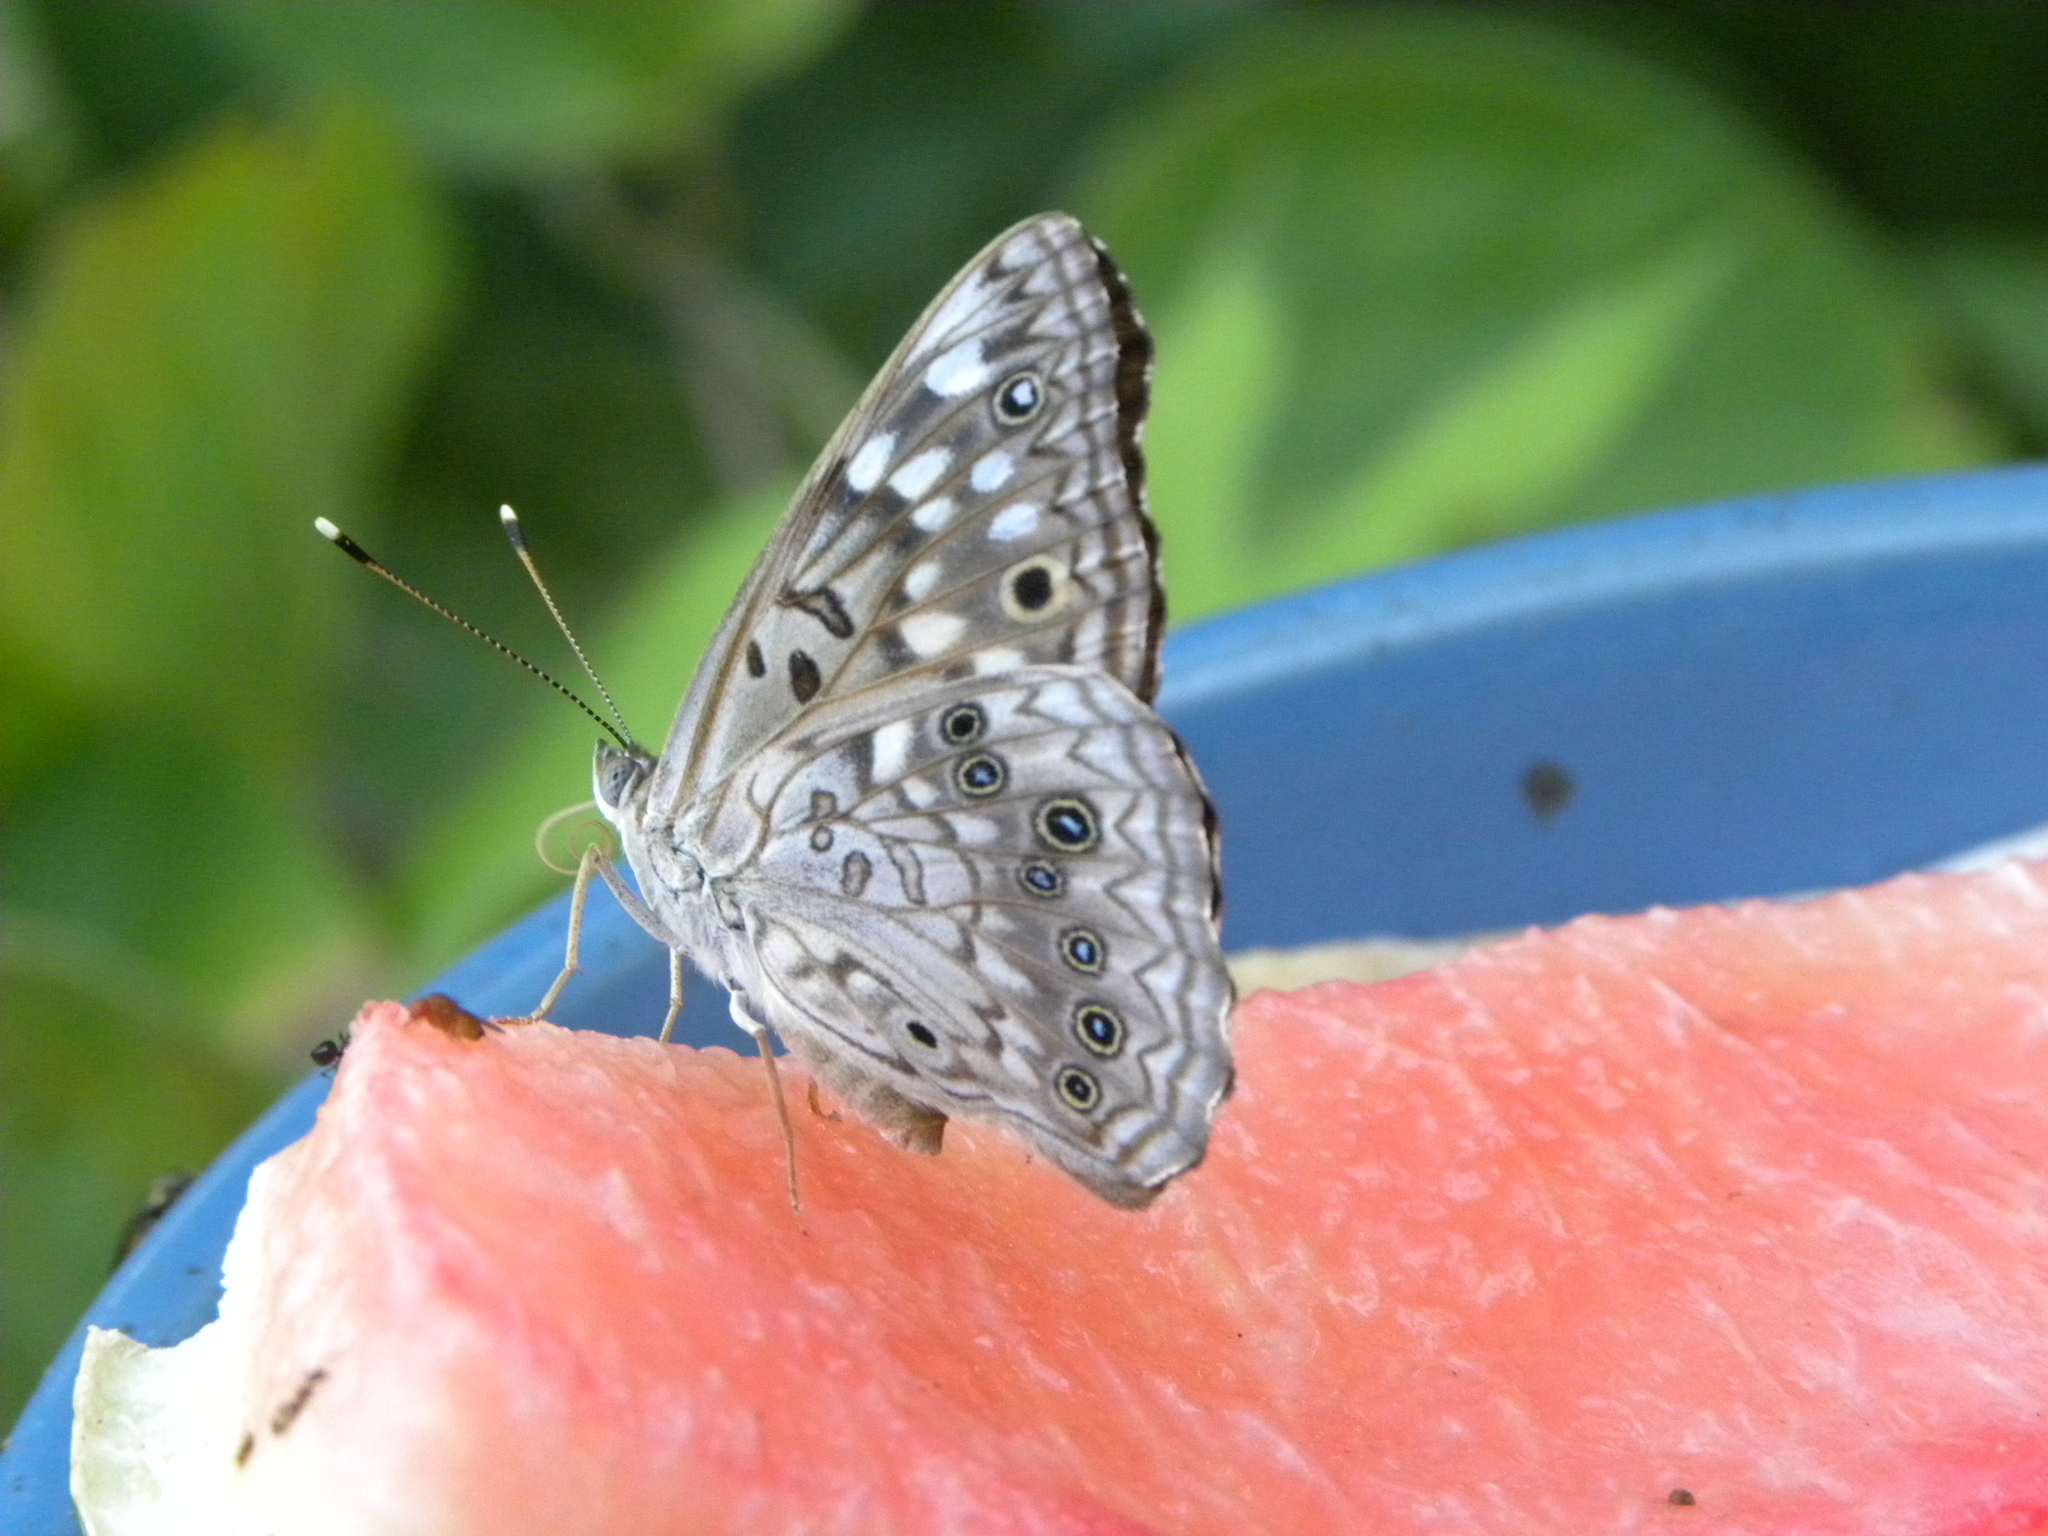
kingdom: Animalia
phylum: Arthropoda
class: Insecta
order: Lepidoptera
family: Nymphalidae
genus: Asterocampa
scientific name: Asterocampa celtis
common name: Hackberry emperor
